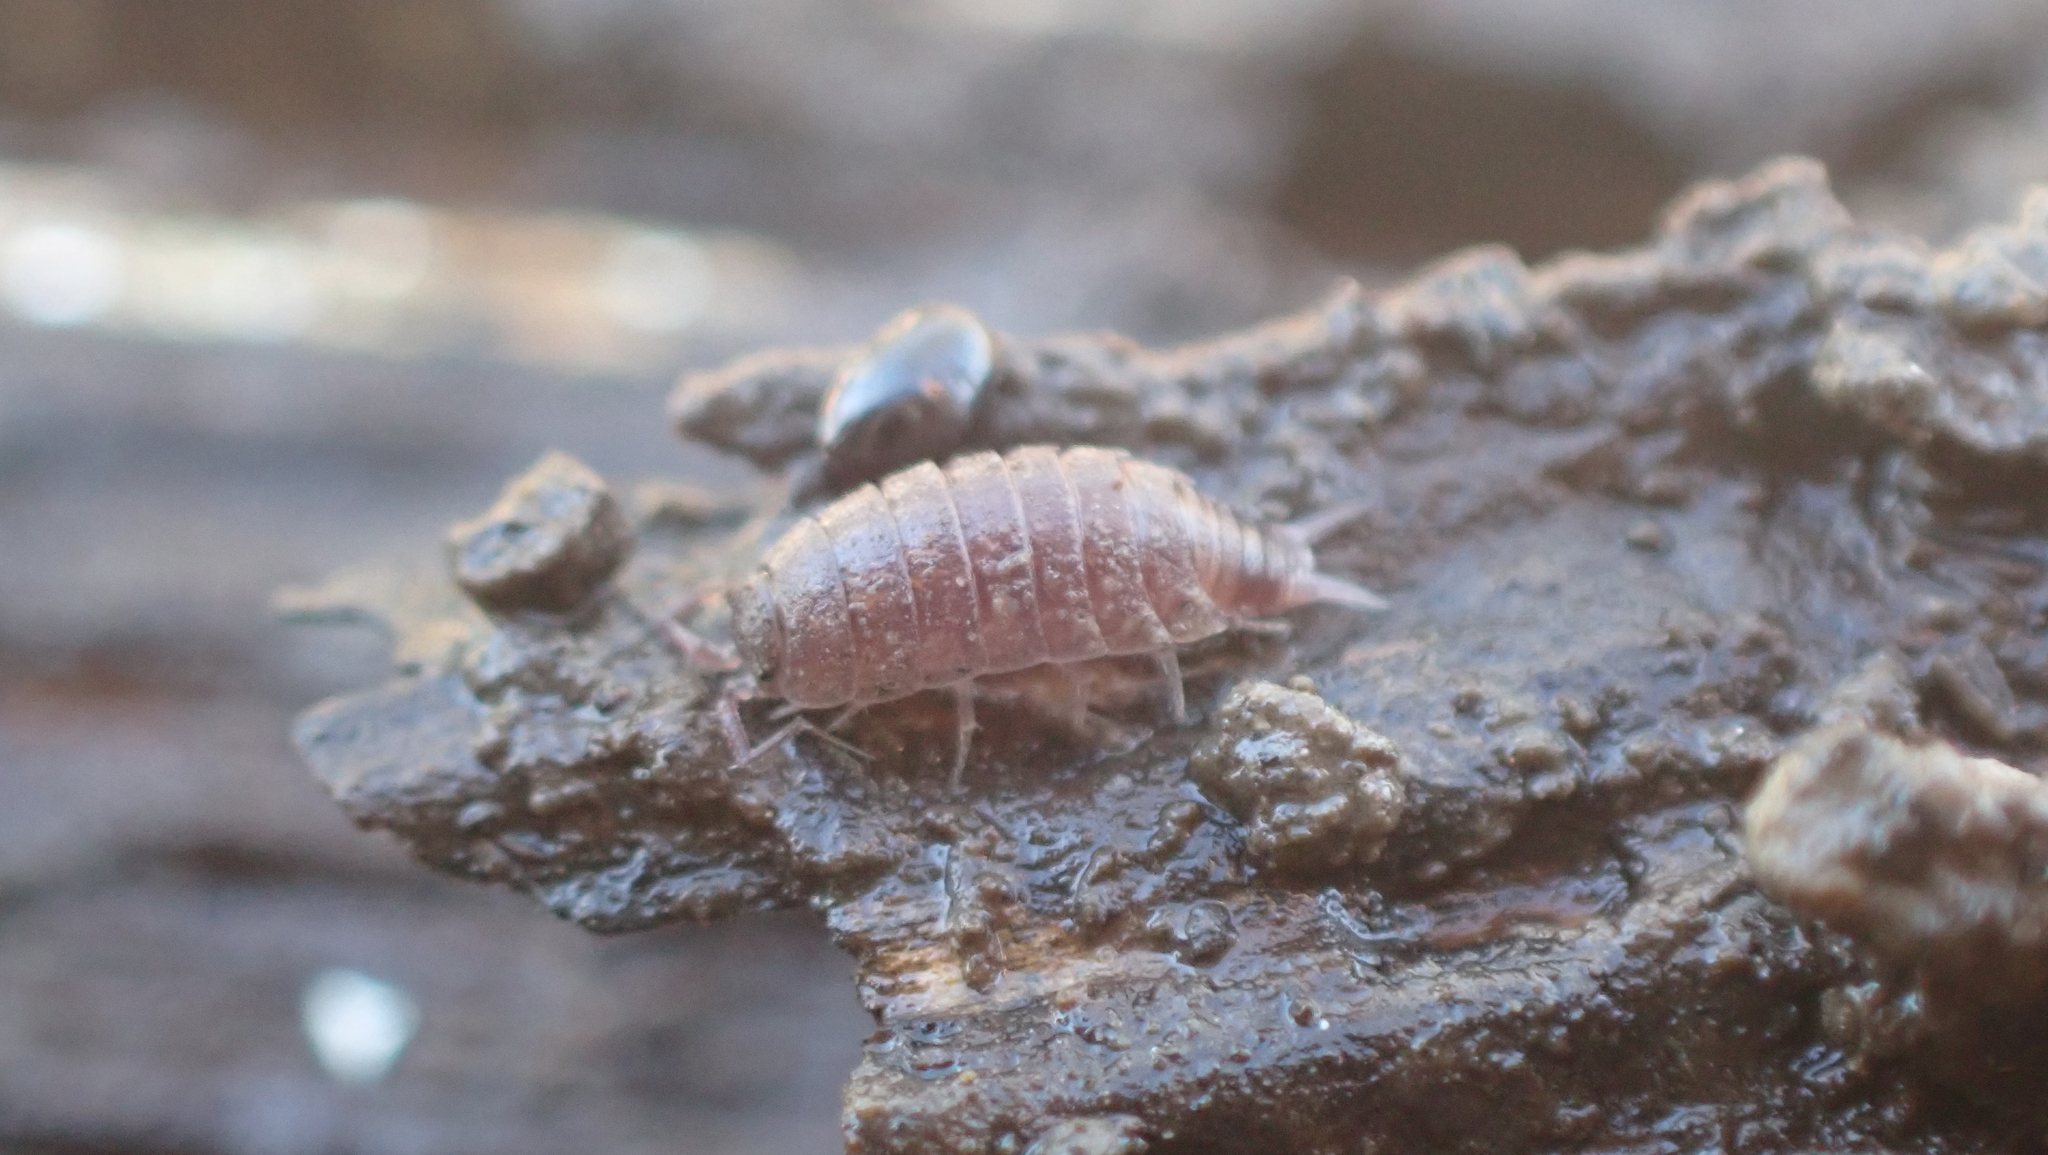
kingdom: Animalia
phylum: Arthropoda
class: Malacostraca
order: Isopoda
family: Trichoniscidae
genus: Hyloniscus
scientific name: Hyloniscus riparius
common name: Isopod
